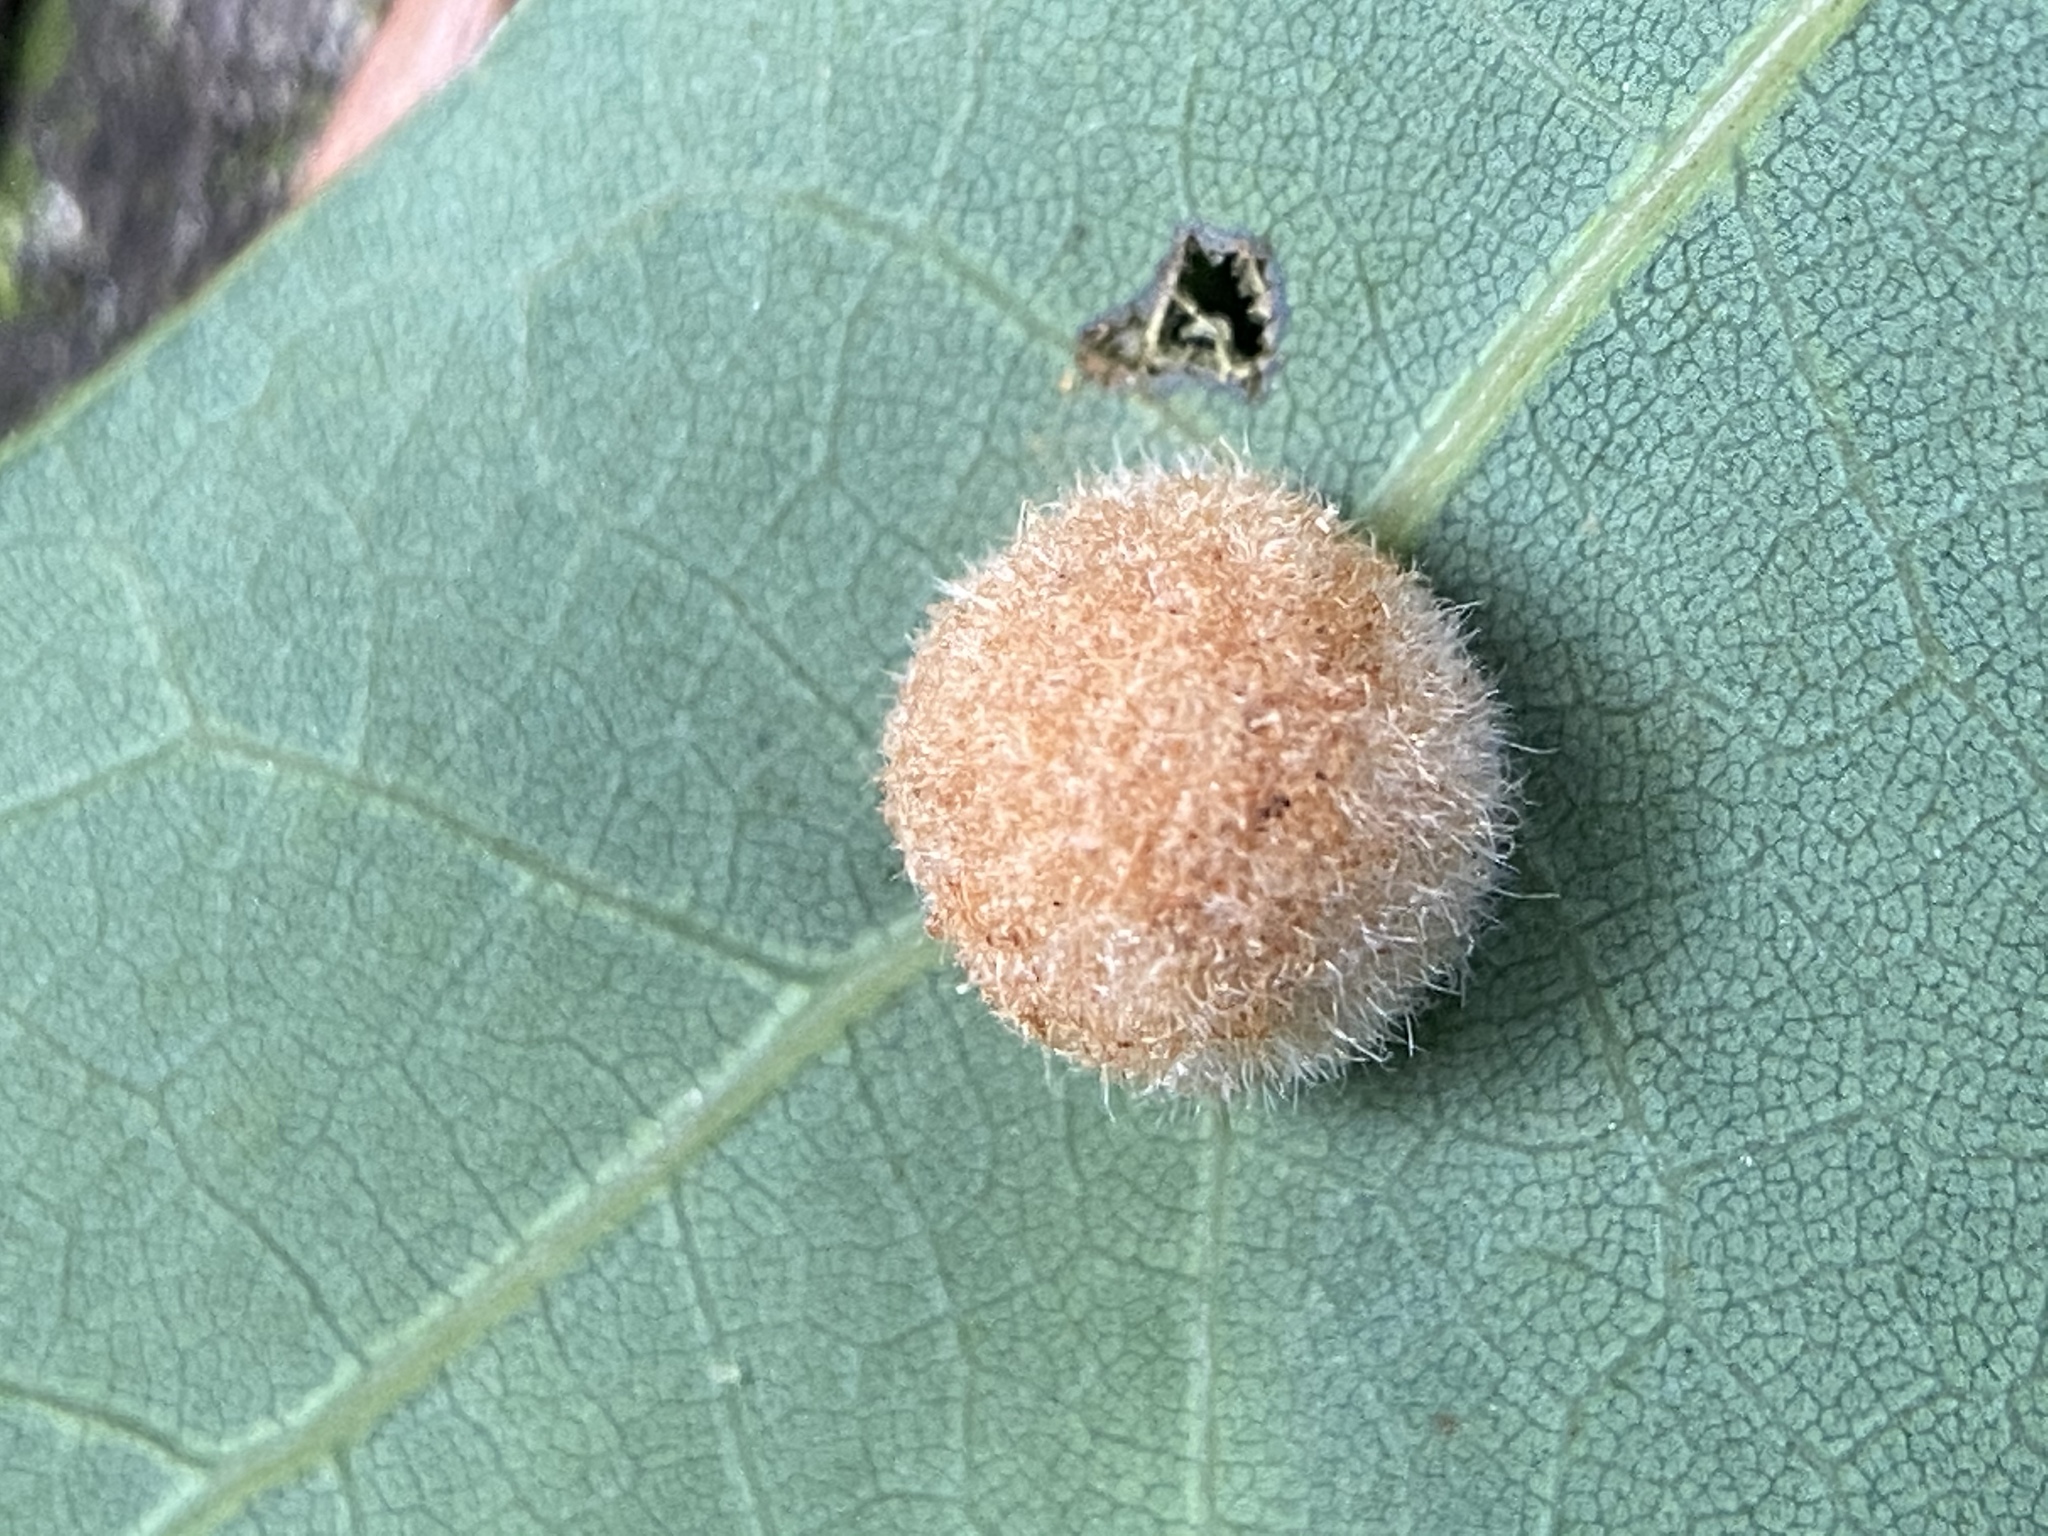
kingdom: Animalia
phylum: Arthropoda
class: Insecta
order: Hymenoptera
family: Cynipidae
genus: Philonix
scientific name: Philonix fulvicollis
